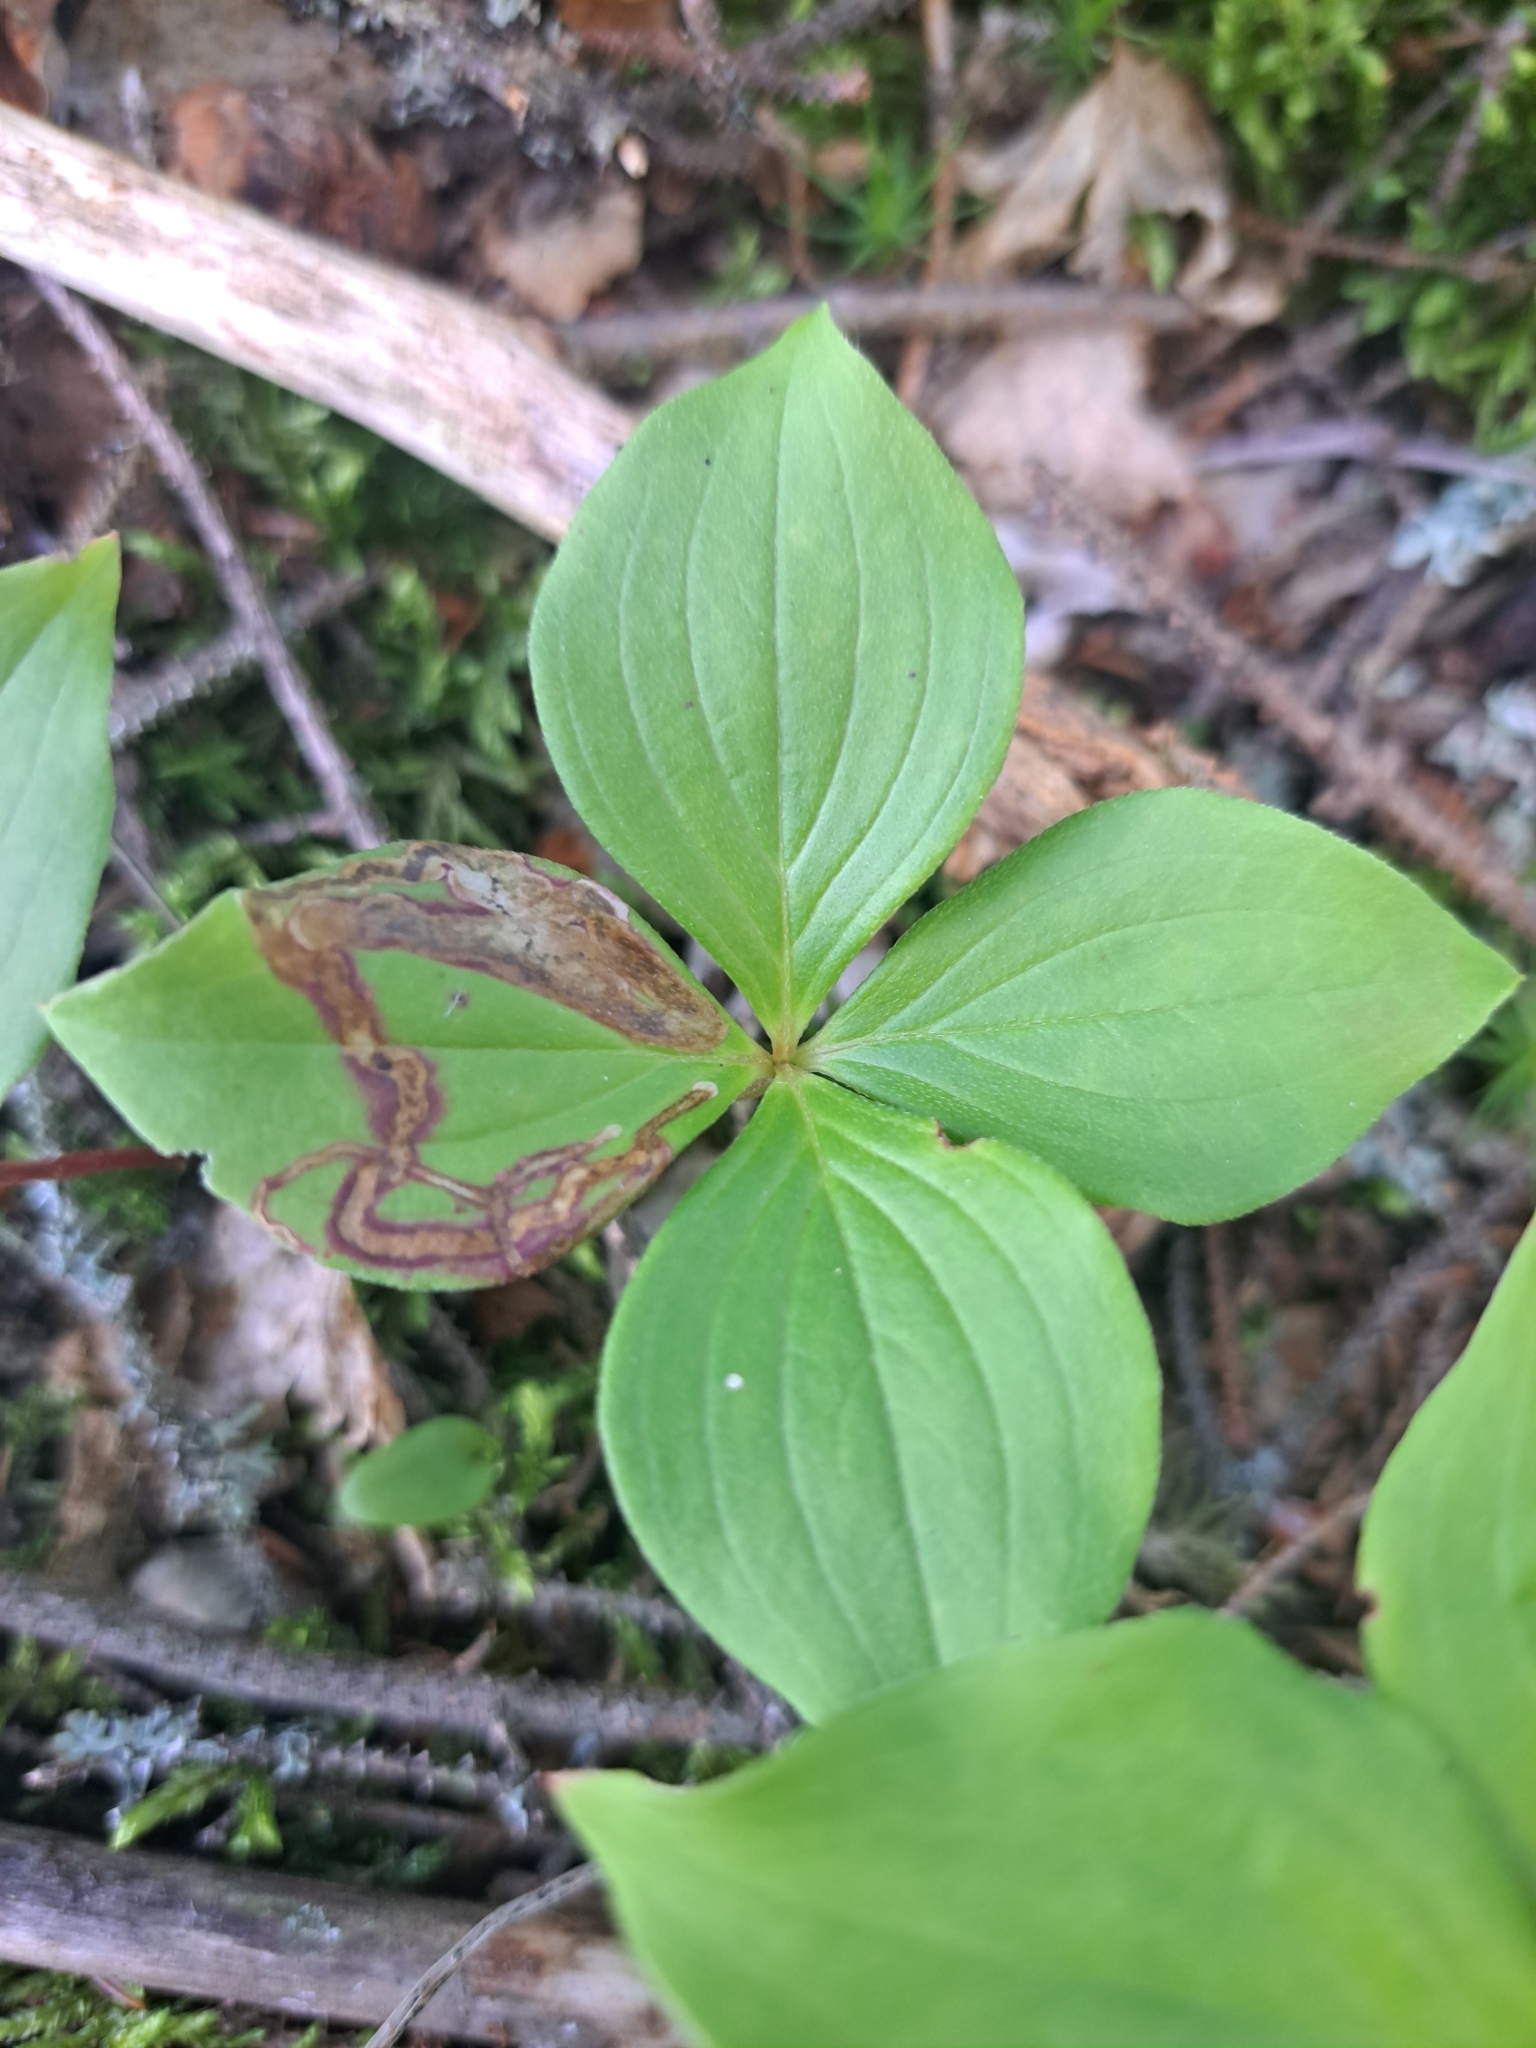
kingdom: Animalia
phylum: Arthropoda
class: Insecta
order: Diptera
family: Agromyzidae
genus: Phytomyza
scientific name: Phytomyza agromyzina
